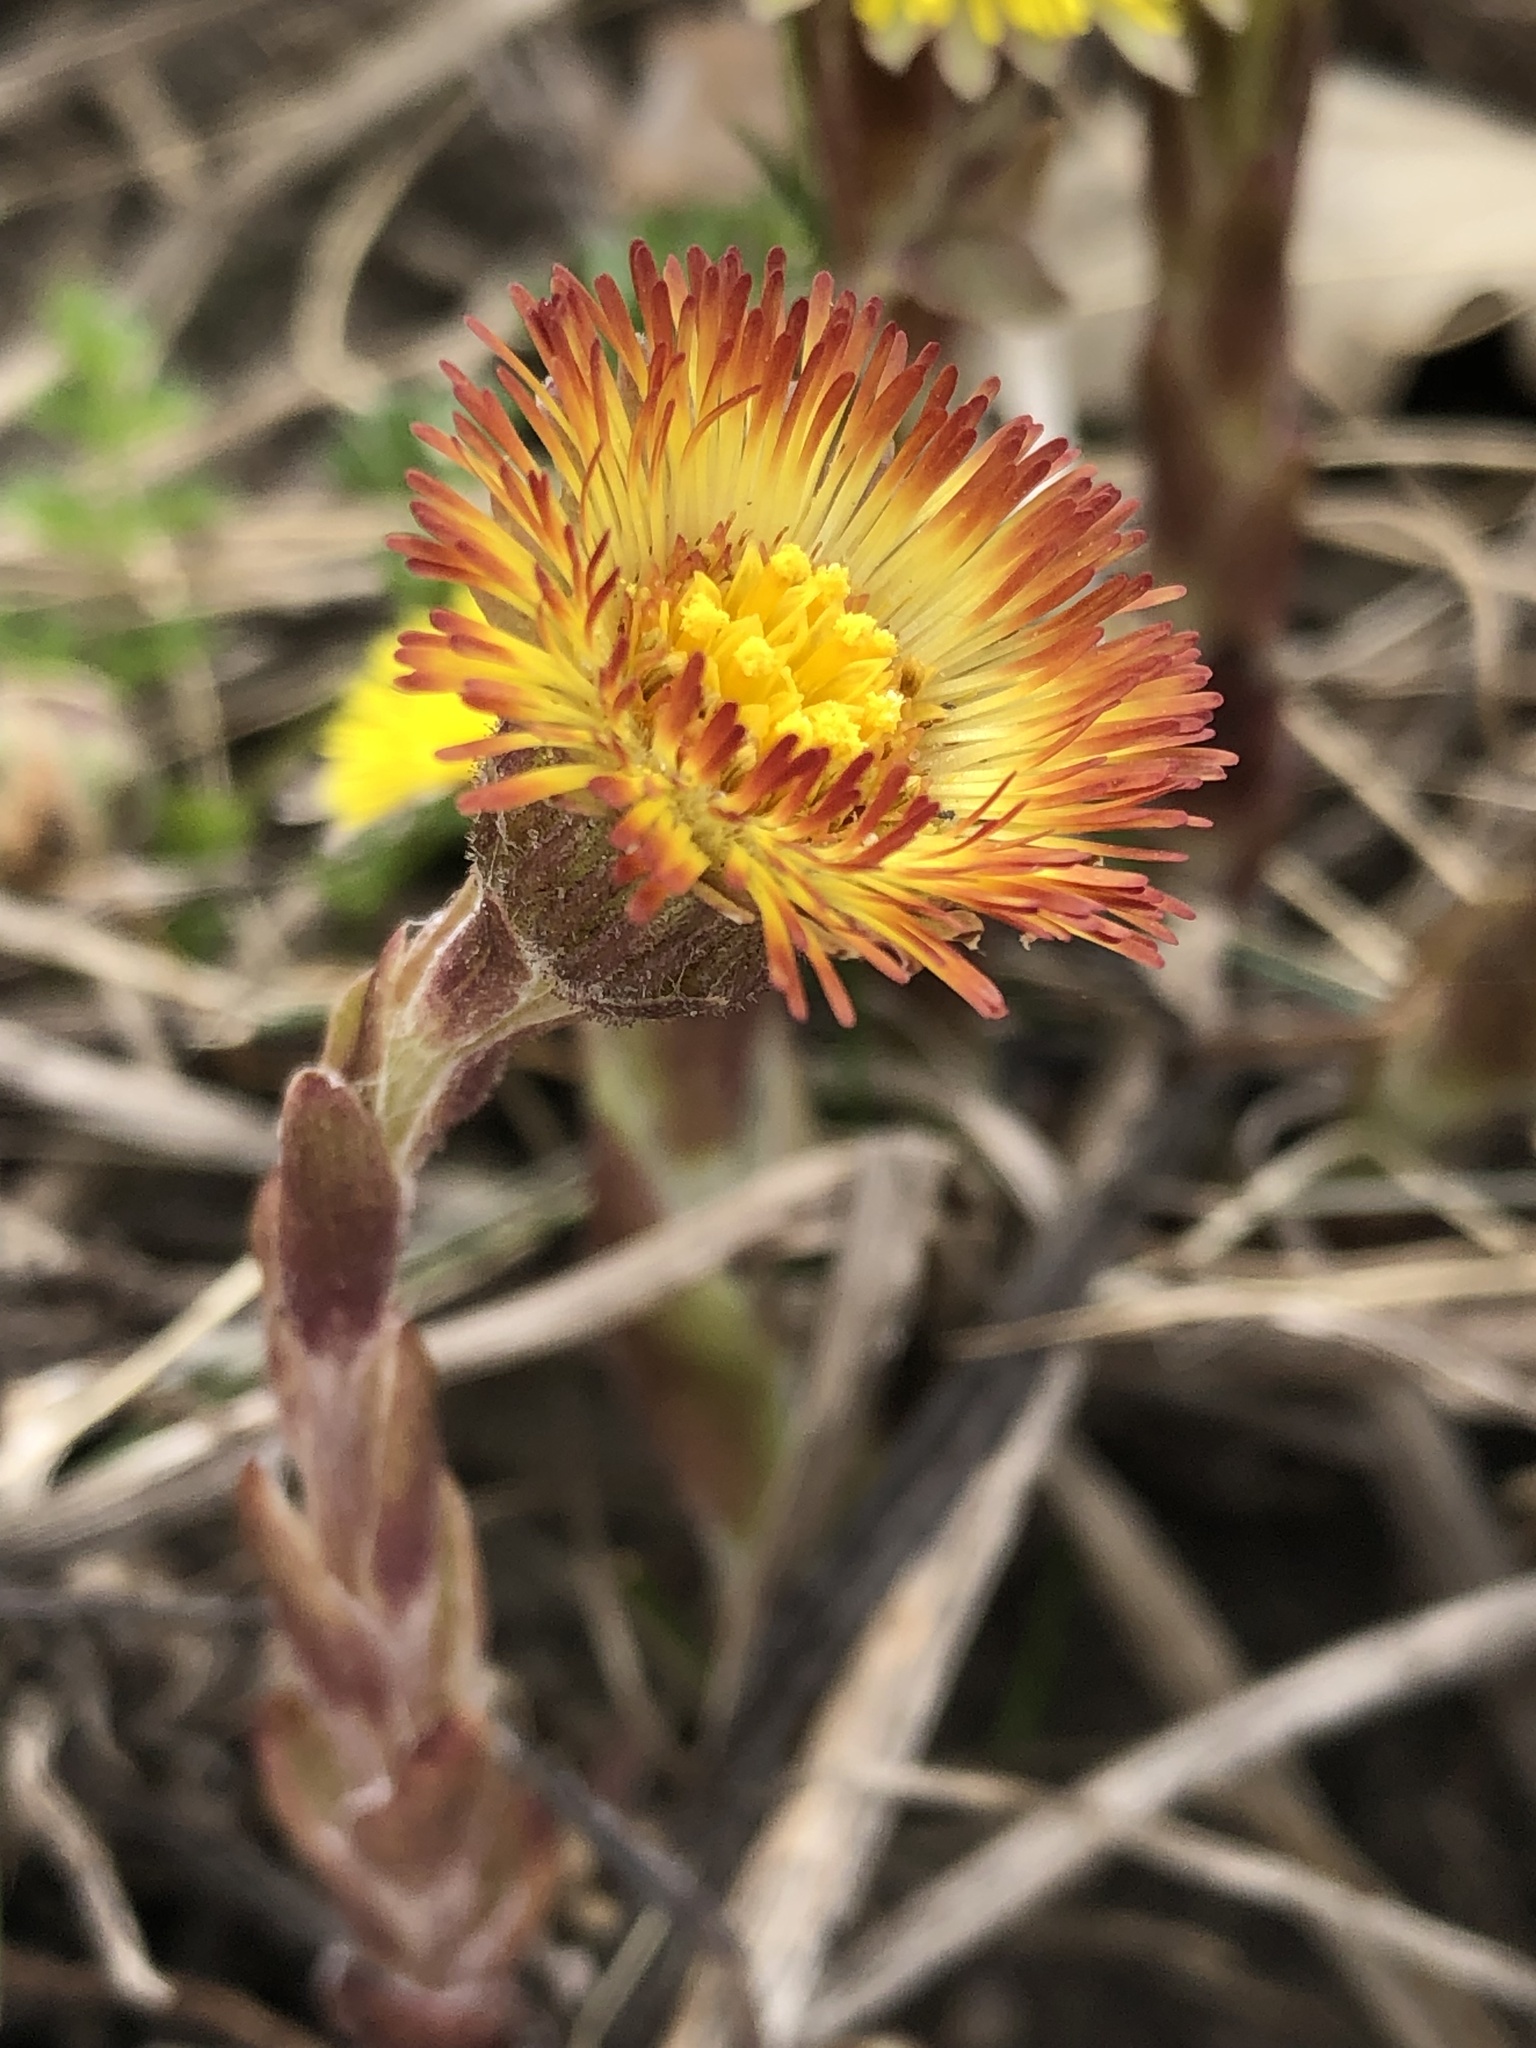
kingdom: Plantae
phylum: Tracheophyta
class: Magnoliopsida
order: Asterales
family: Asteraceae
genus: Tussilago
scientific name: Tussilago farfara
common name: Coltsfoot
